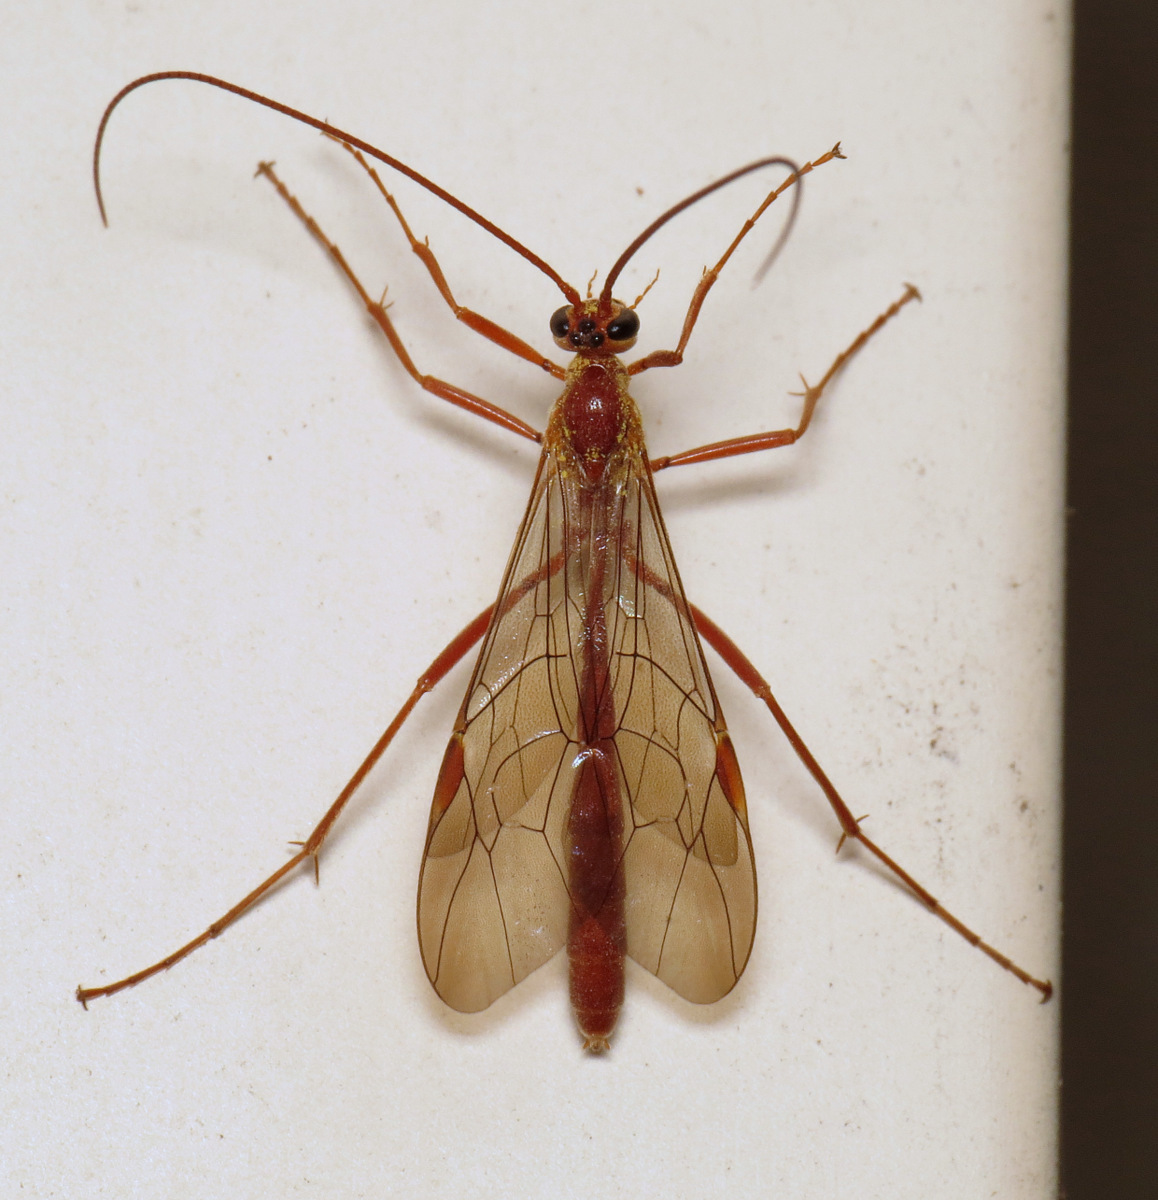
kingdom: Animalia
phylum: Arthropoda
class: Insecta
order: Hymenoptera
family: Ichneumonidae
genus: Ophion
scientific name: Ophion
